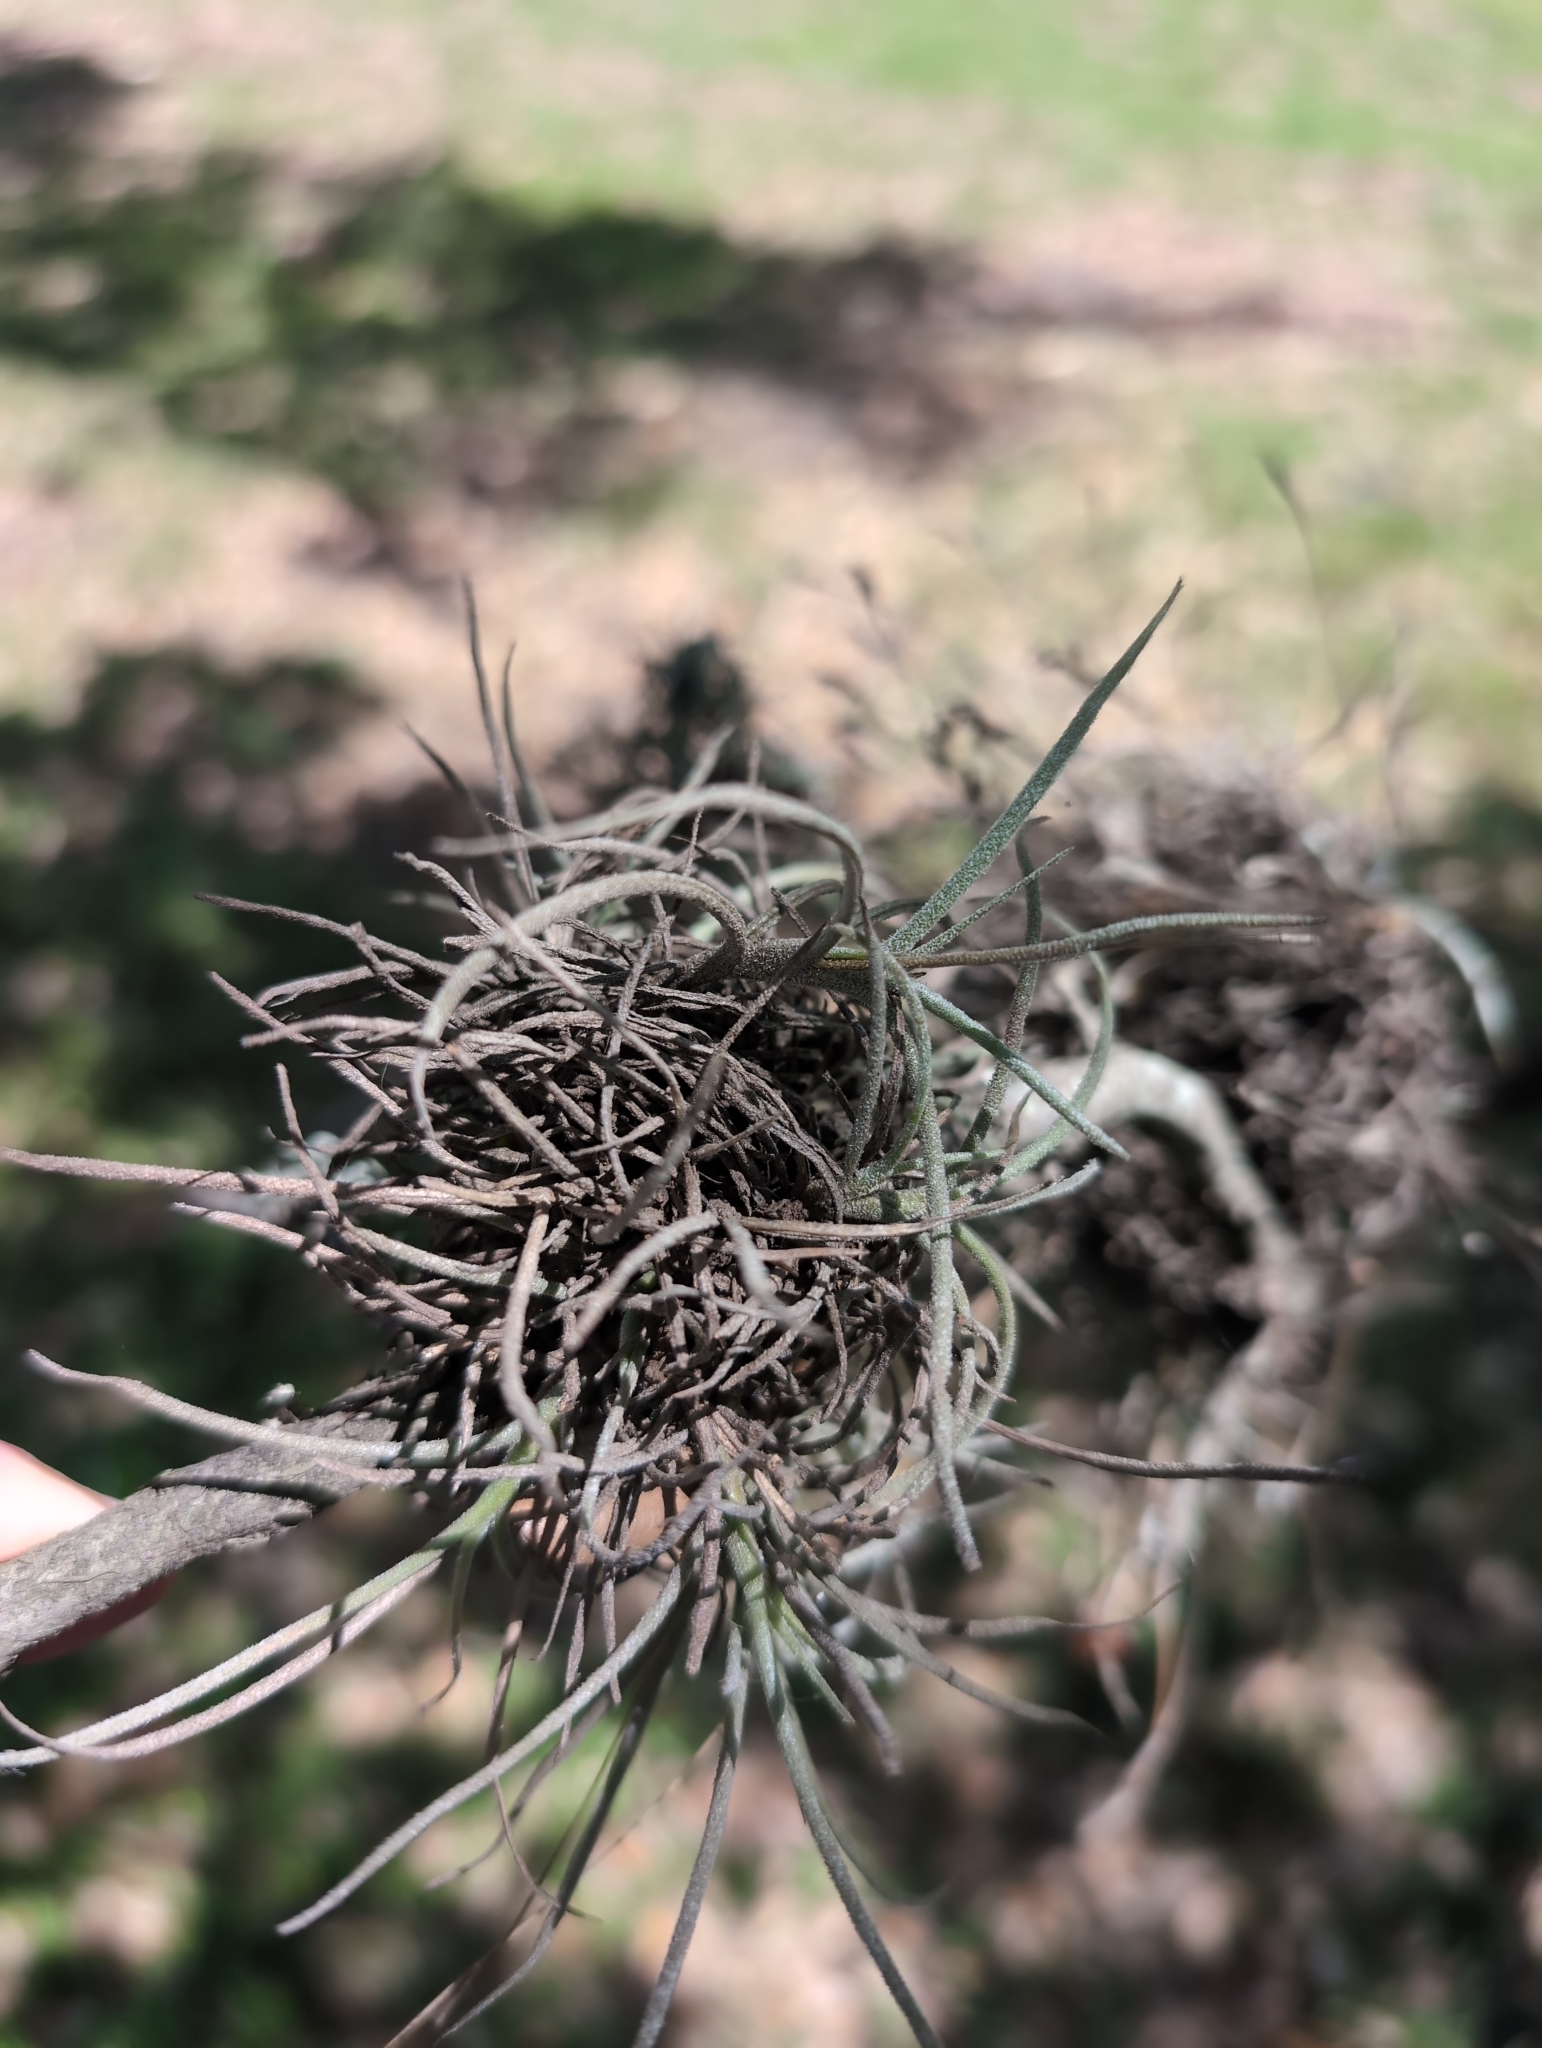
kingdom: Plantae
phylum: Tracheophyta
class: Liliopsida
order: Poales
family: Bromeliaceae
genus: Tillandsia
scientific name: Tillandsia recurvata
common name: Small ballmoss
